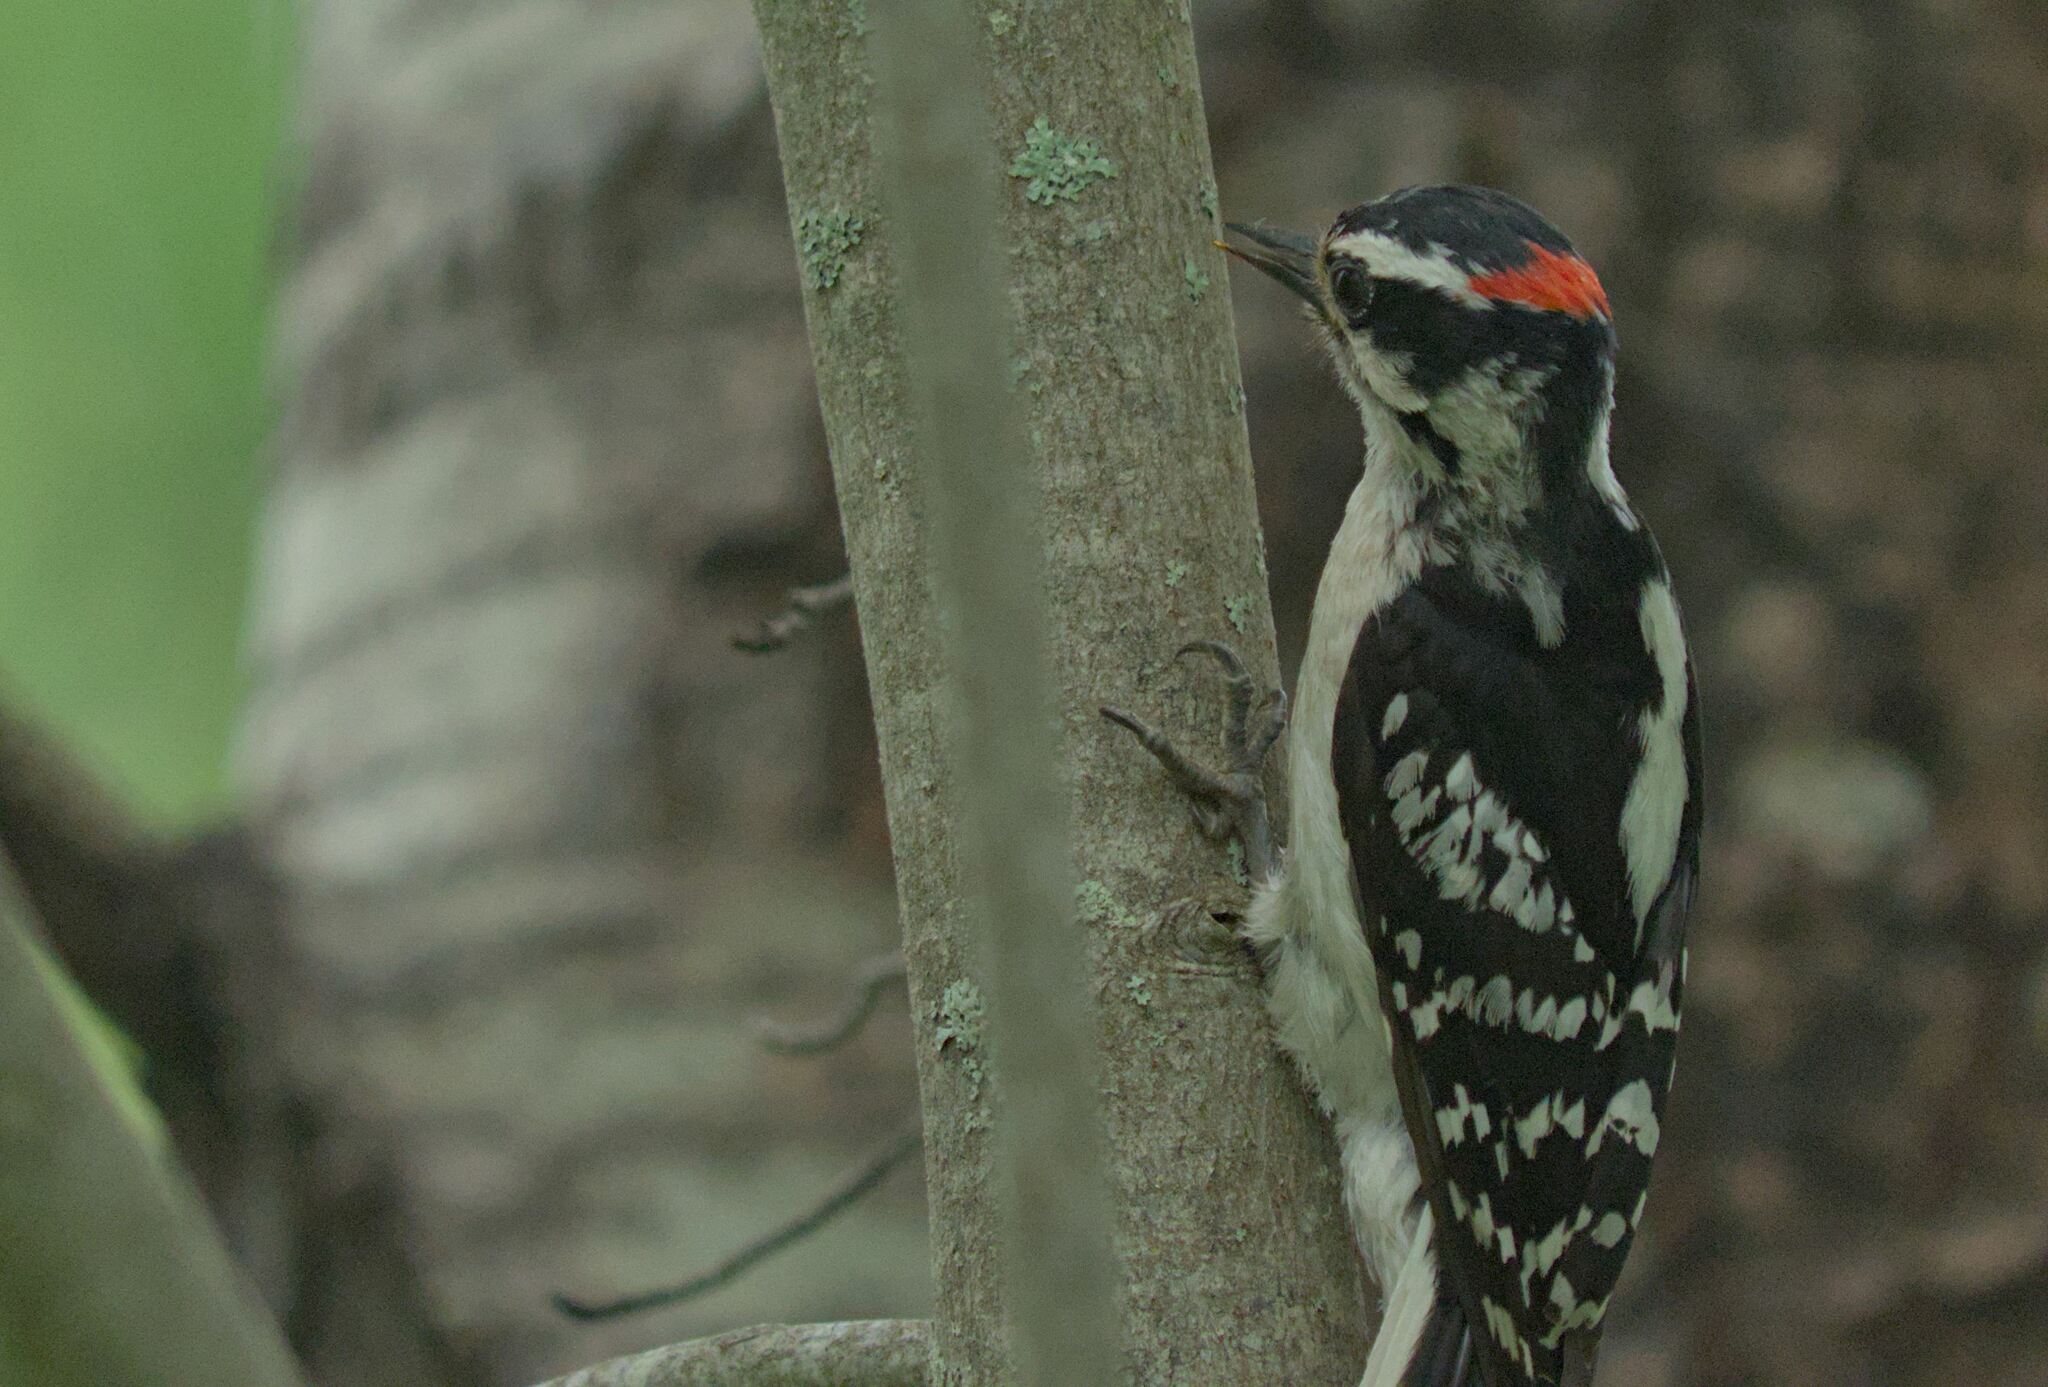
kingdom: Animalia
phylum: Chordata
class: Aves
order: Piciformes
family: Picidae
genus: Dryobates
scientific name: Dryobates pubescens
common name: Downy woodpecker
